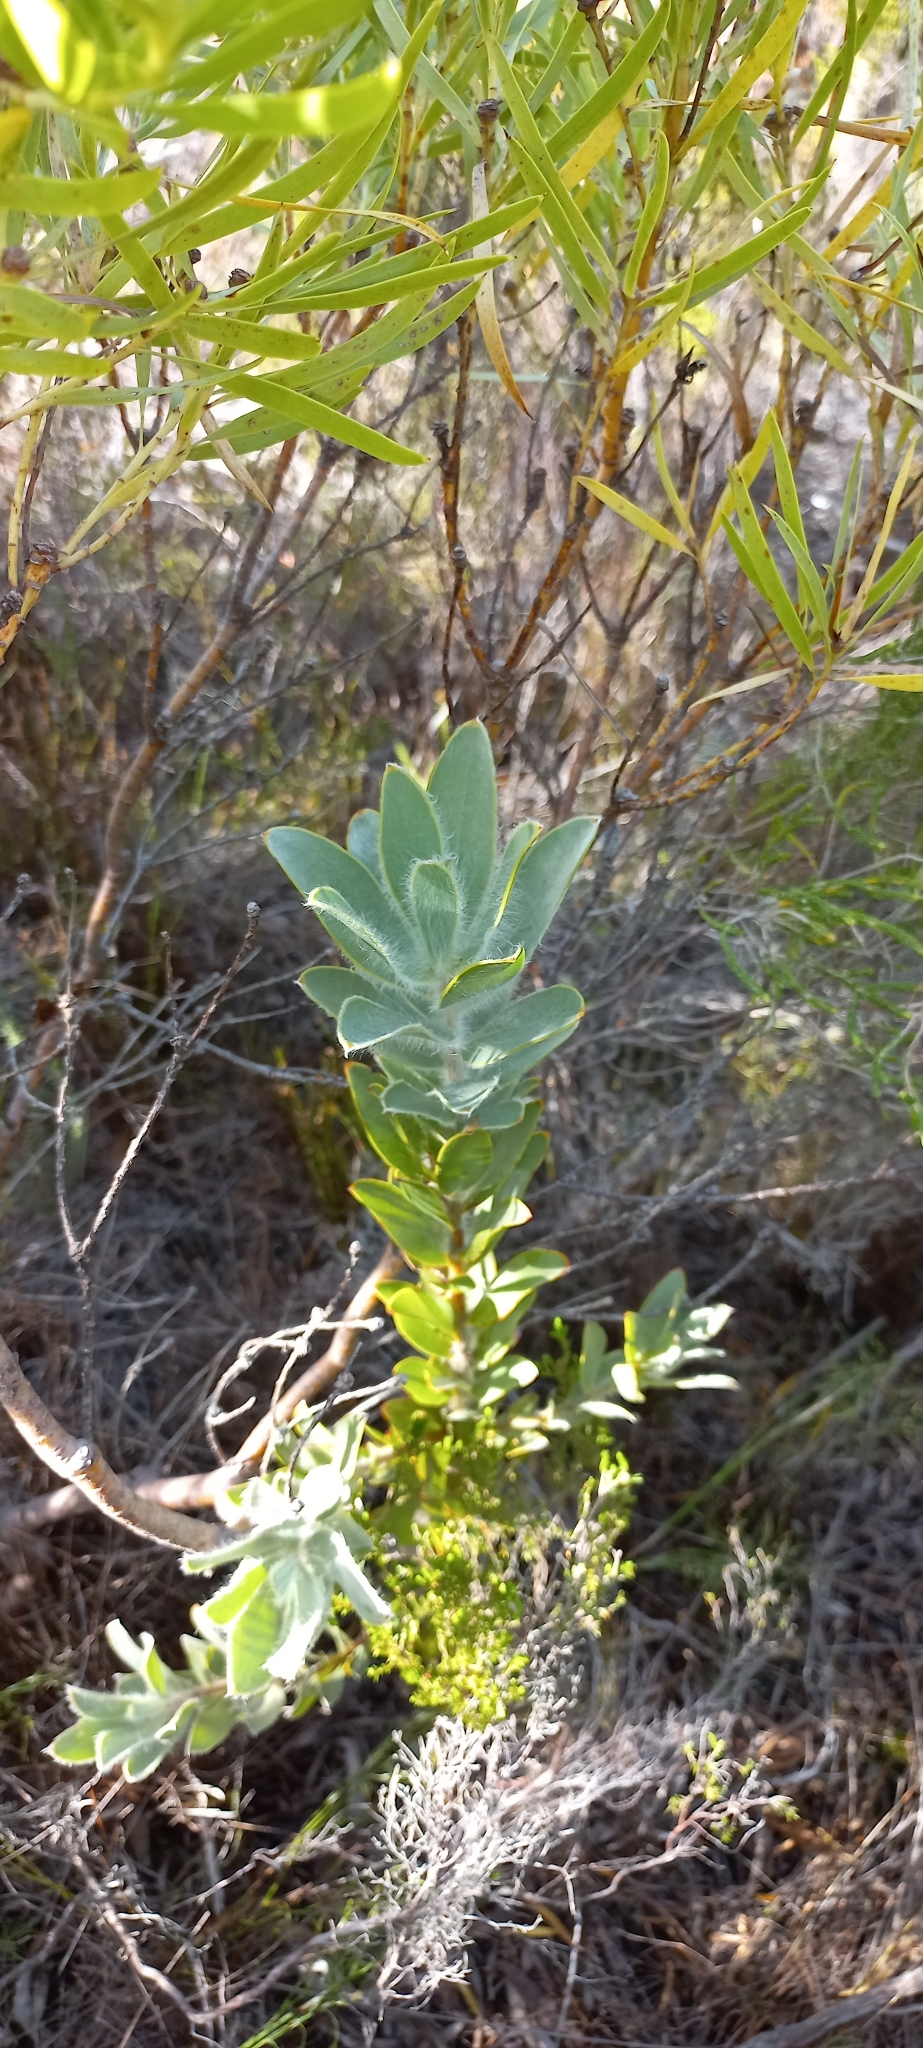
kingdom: Plantae
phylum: Tracheophyta
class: Magnoliopsida
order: Proteales
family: Proteaceae
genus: Leucadendron
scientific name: Leucadendron nervosum
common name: Silky-ruff conebush
